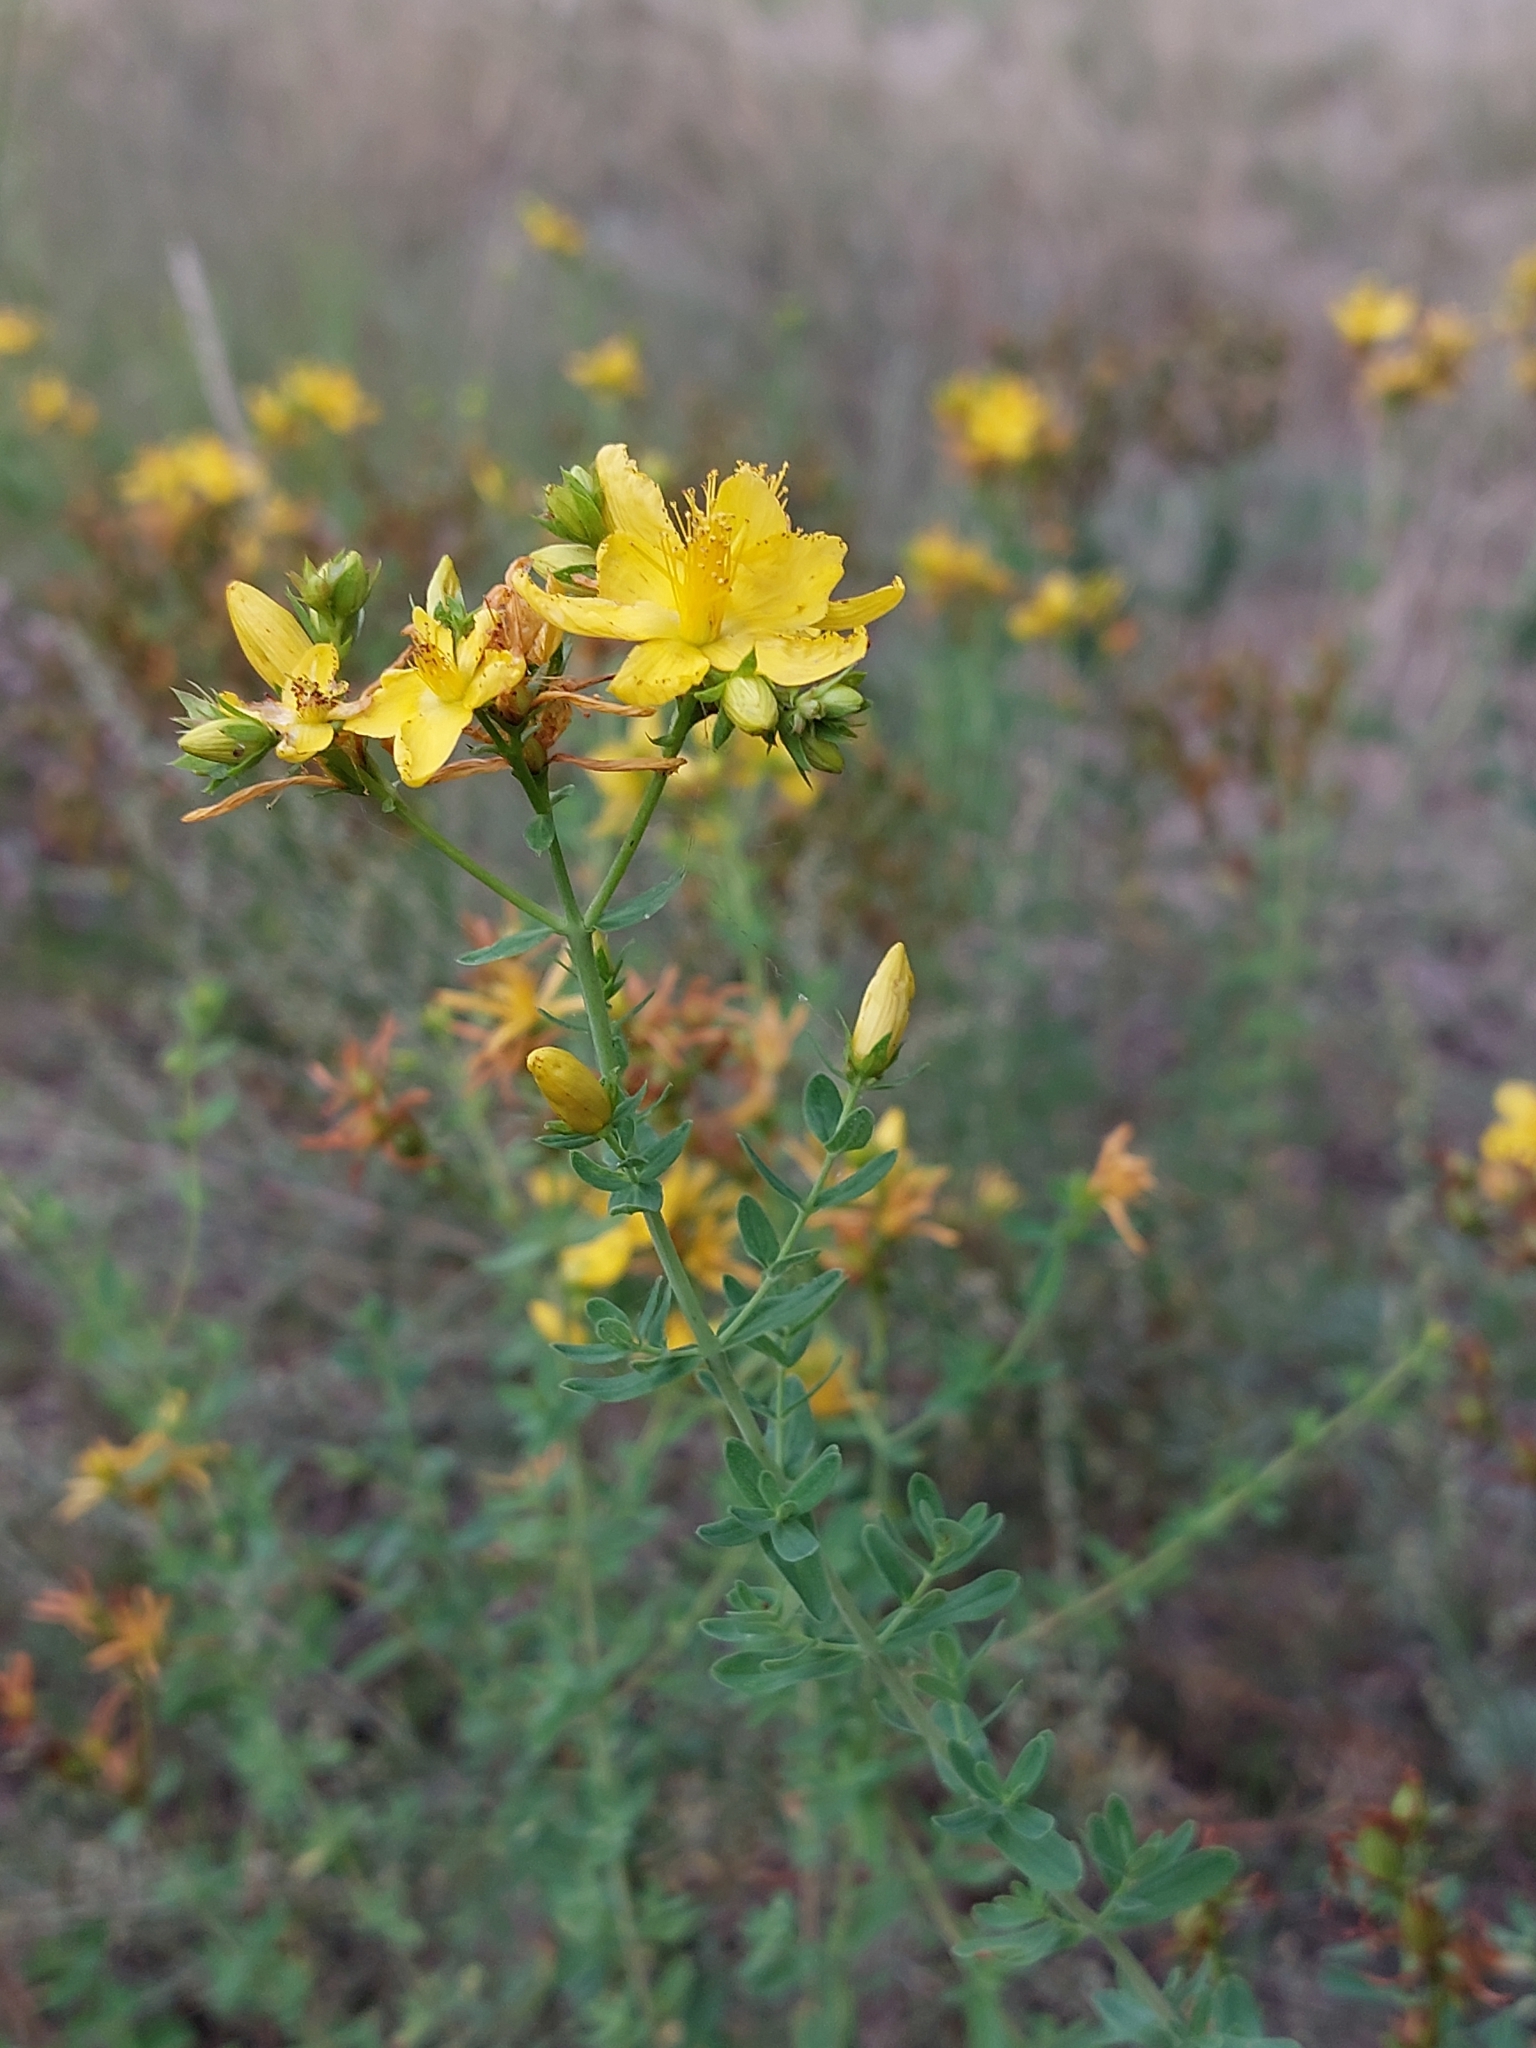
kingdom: Plantae
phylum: Tracheophyta
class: Magnoliopsida
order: Malpighiales
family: Hypericaceae
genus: Hypericum
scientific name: Hypericum perforatum
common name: Common st. johnswort
